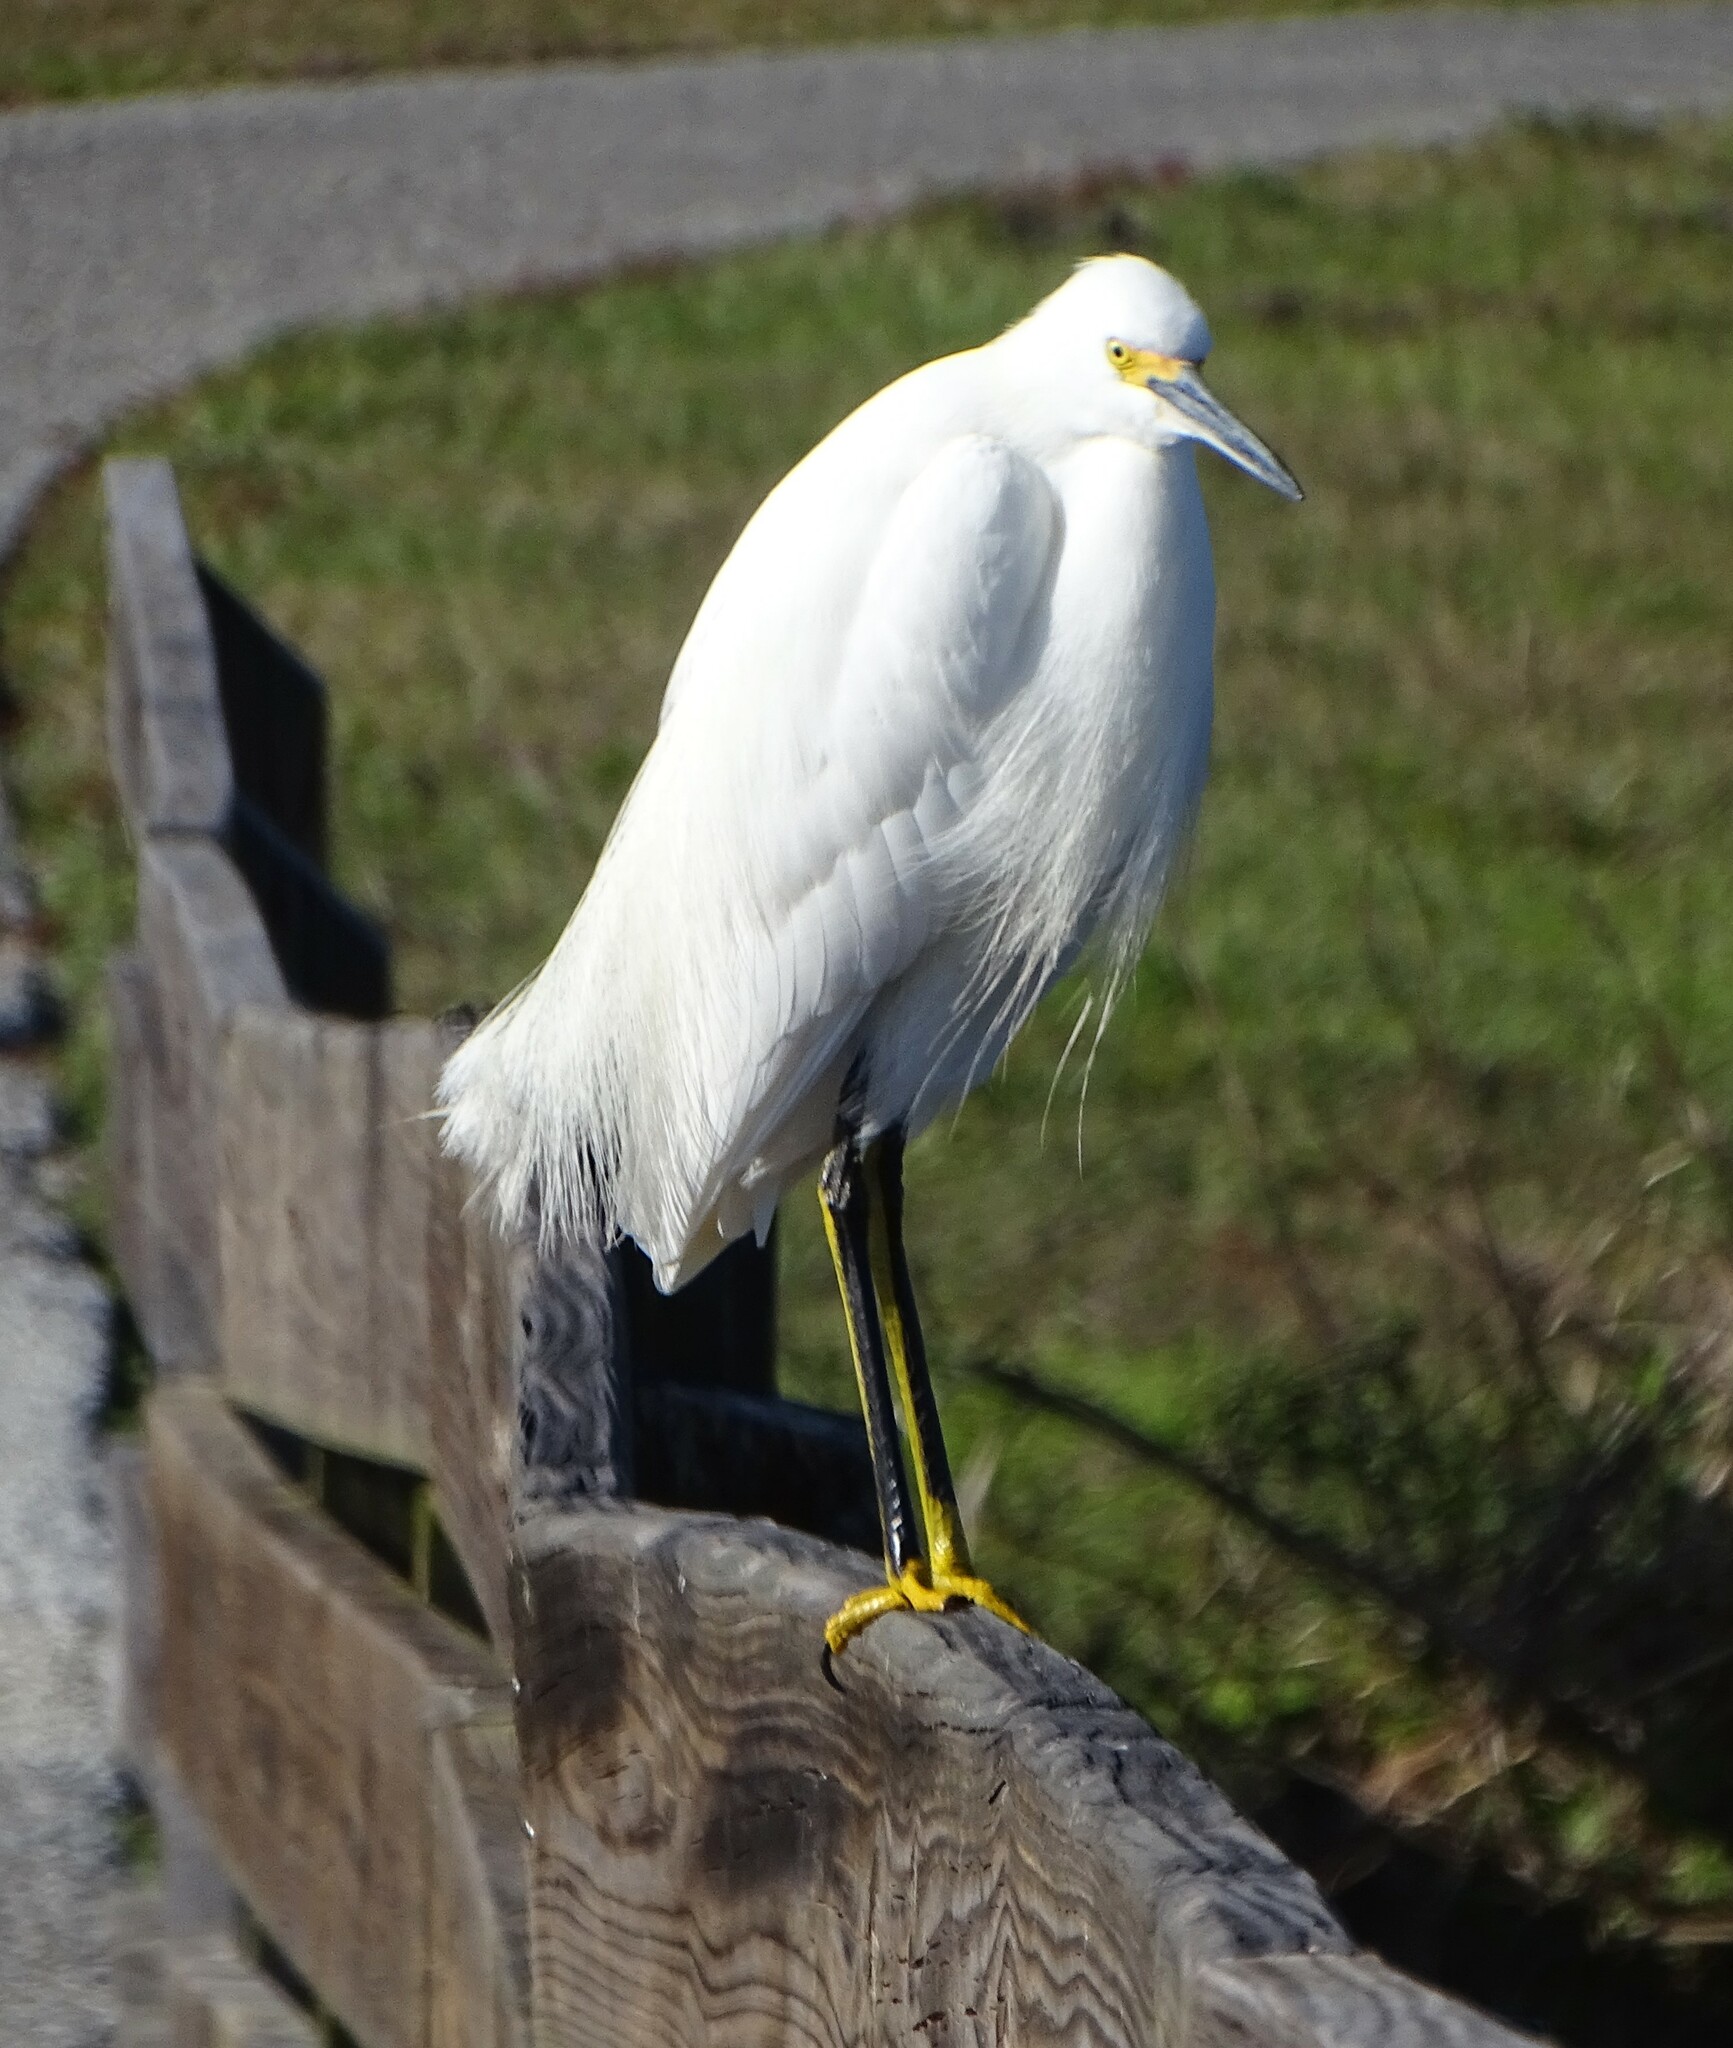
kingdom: Animalia
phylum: Chordata
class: Aves
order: Pelecaniformes
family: Ardeidae
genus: Egretta
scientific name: Egretta thula
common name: Snowy egret
